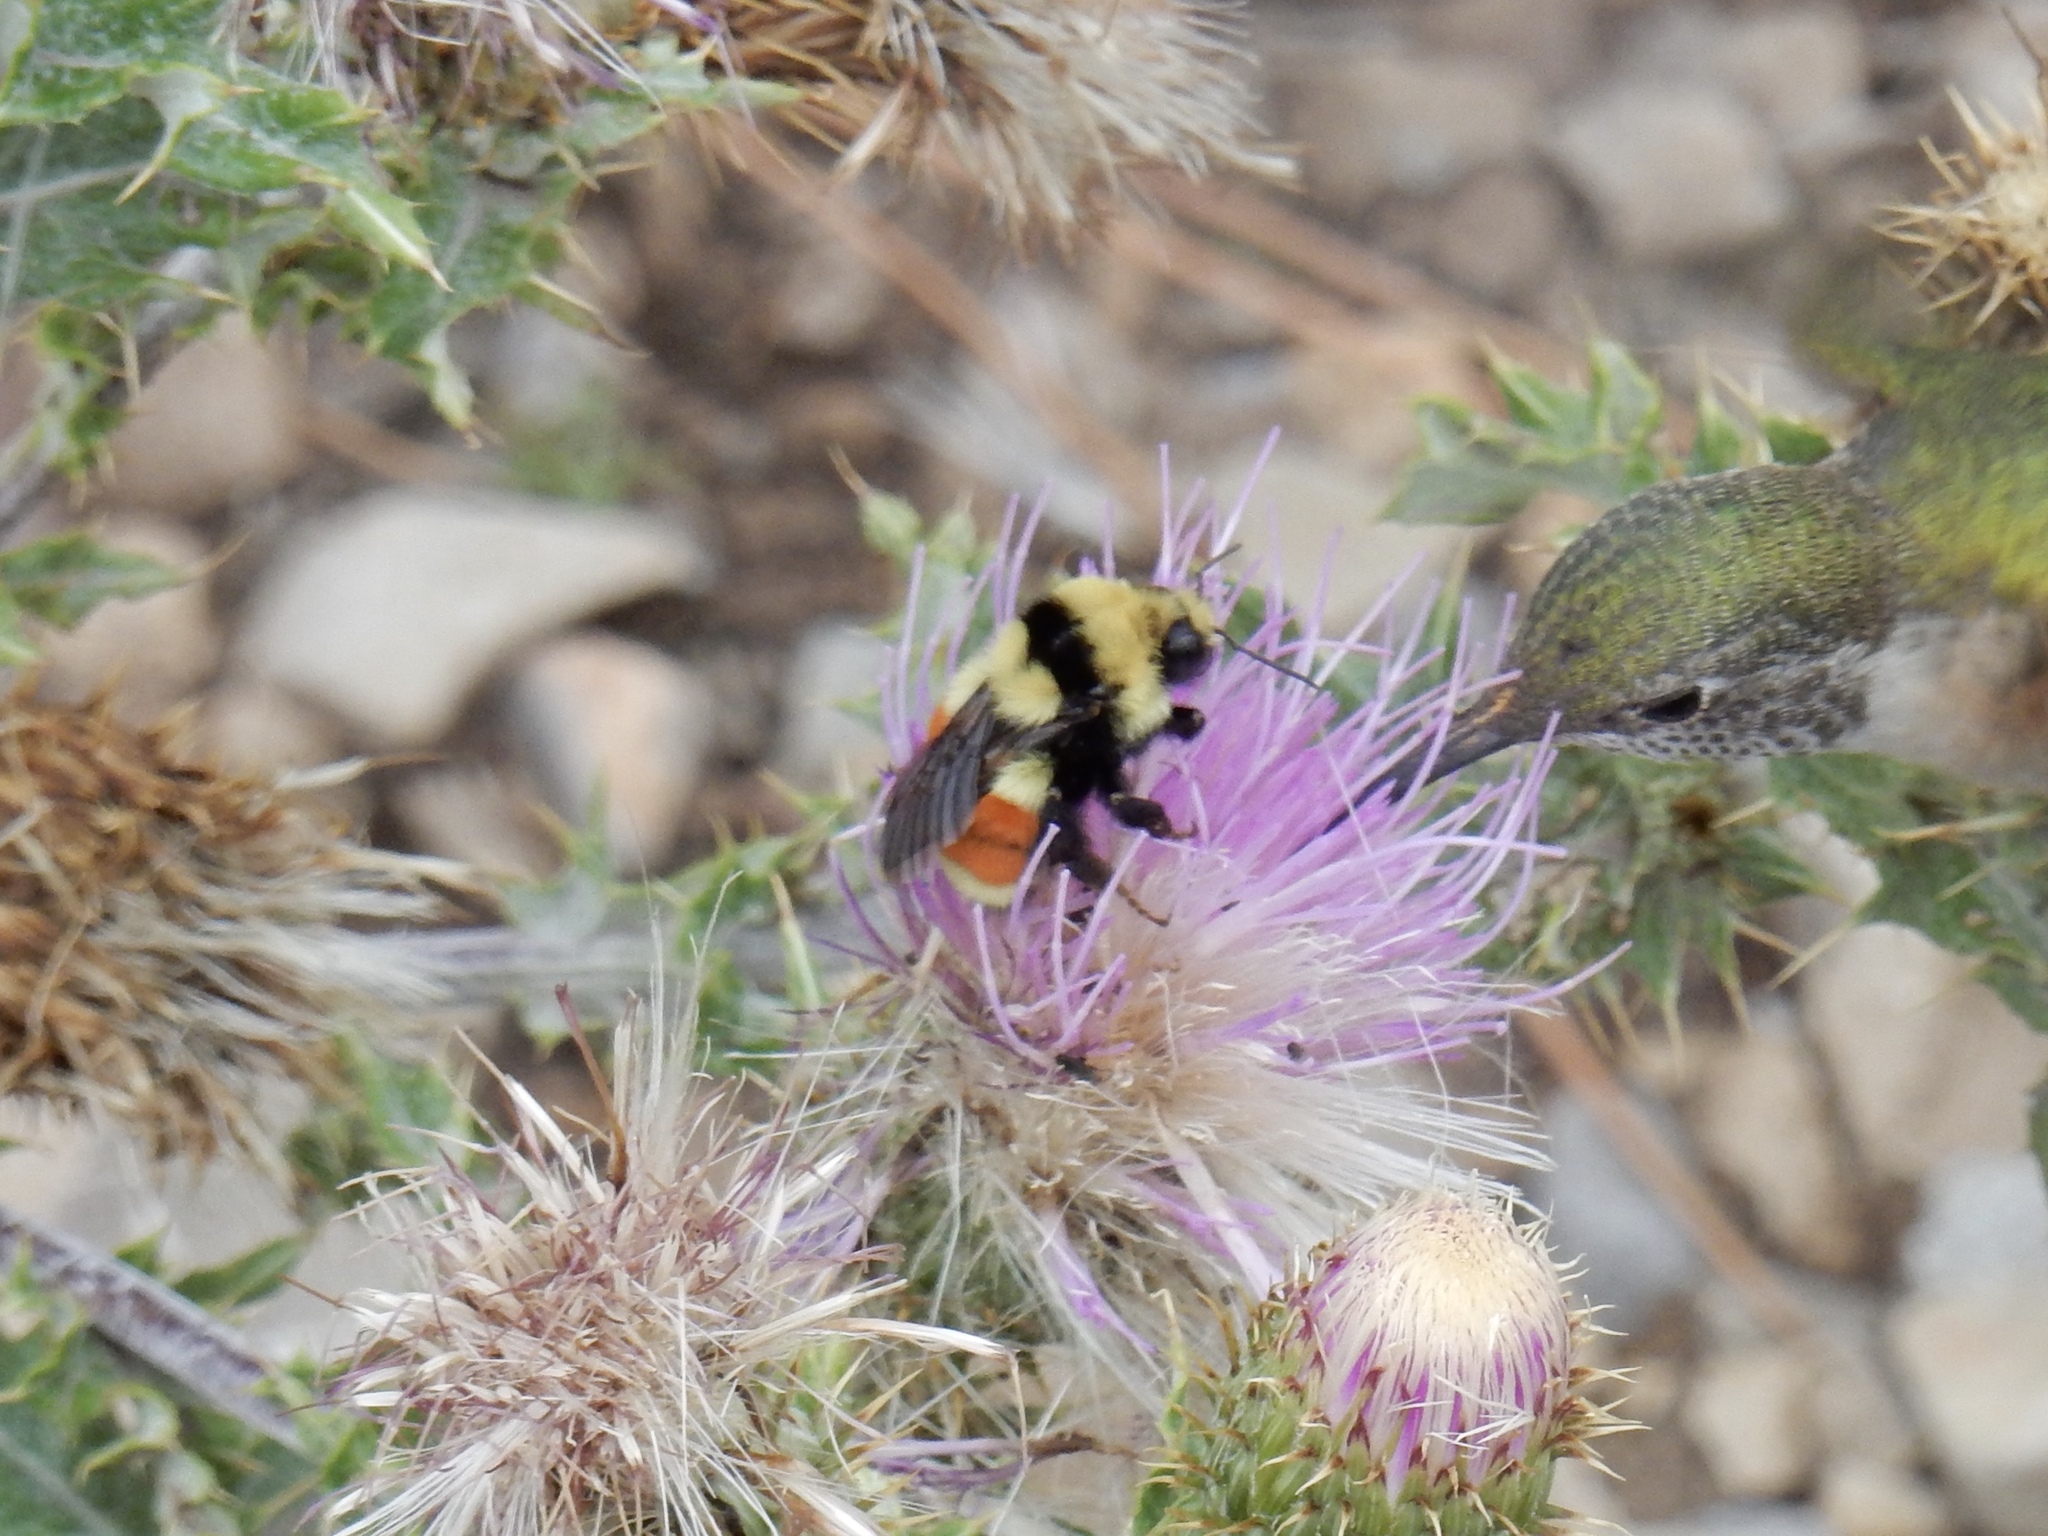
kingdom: Animalia
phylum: Arthropoda
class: Insecta
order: Hymenoptera
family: Apidae
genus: Bombus
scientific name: Bombus huntii
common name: Hunt bumble bee
